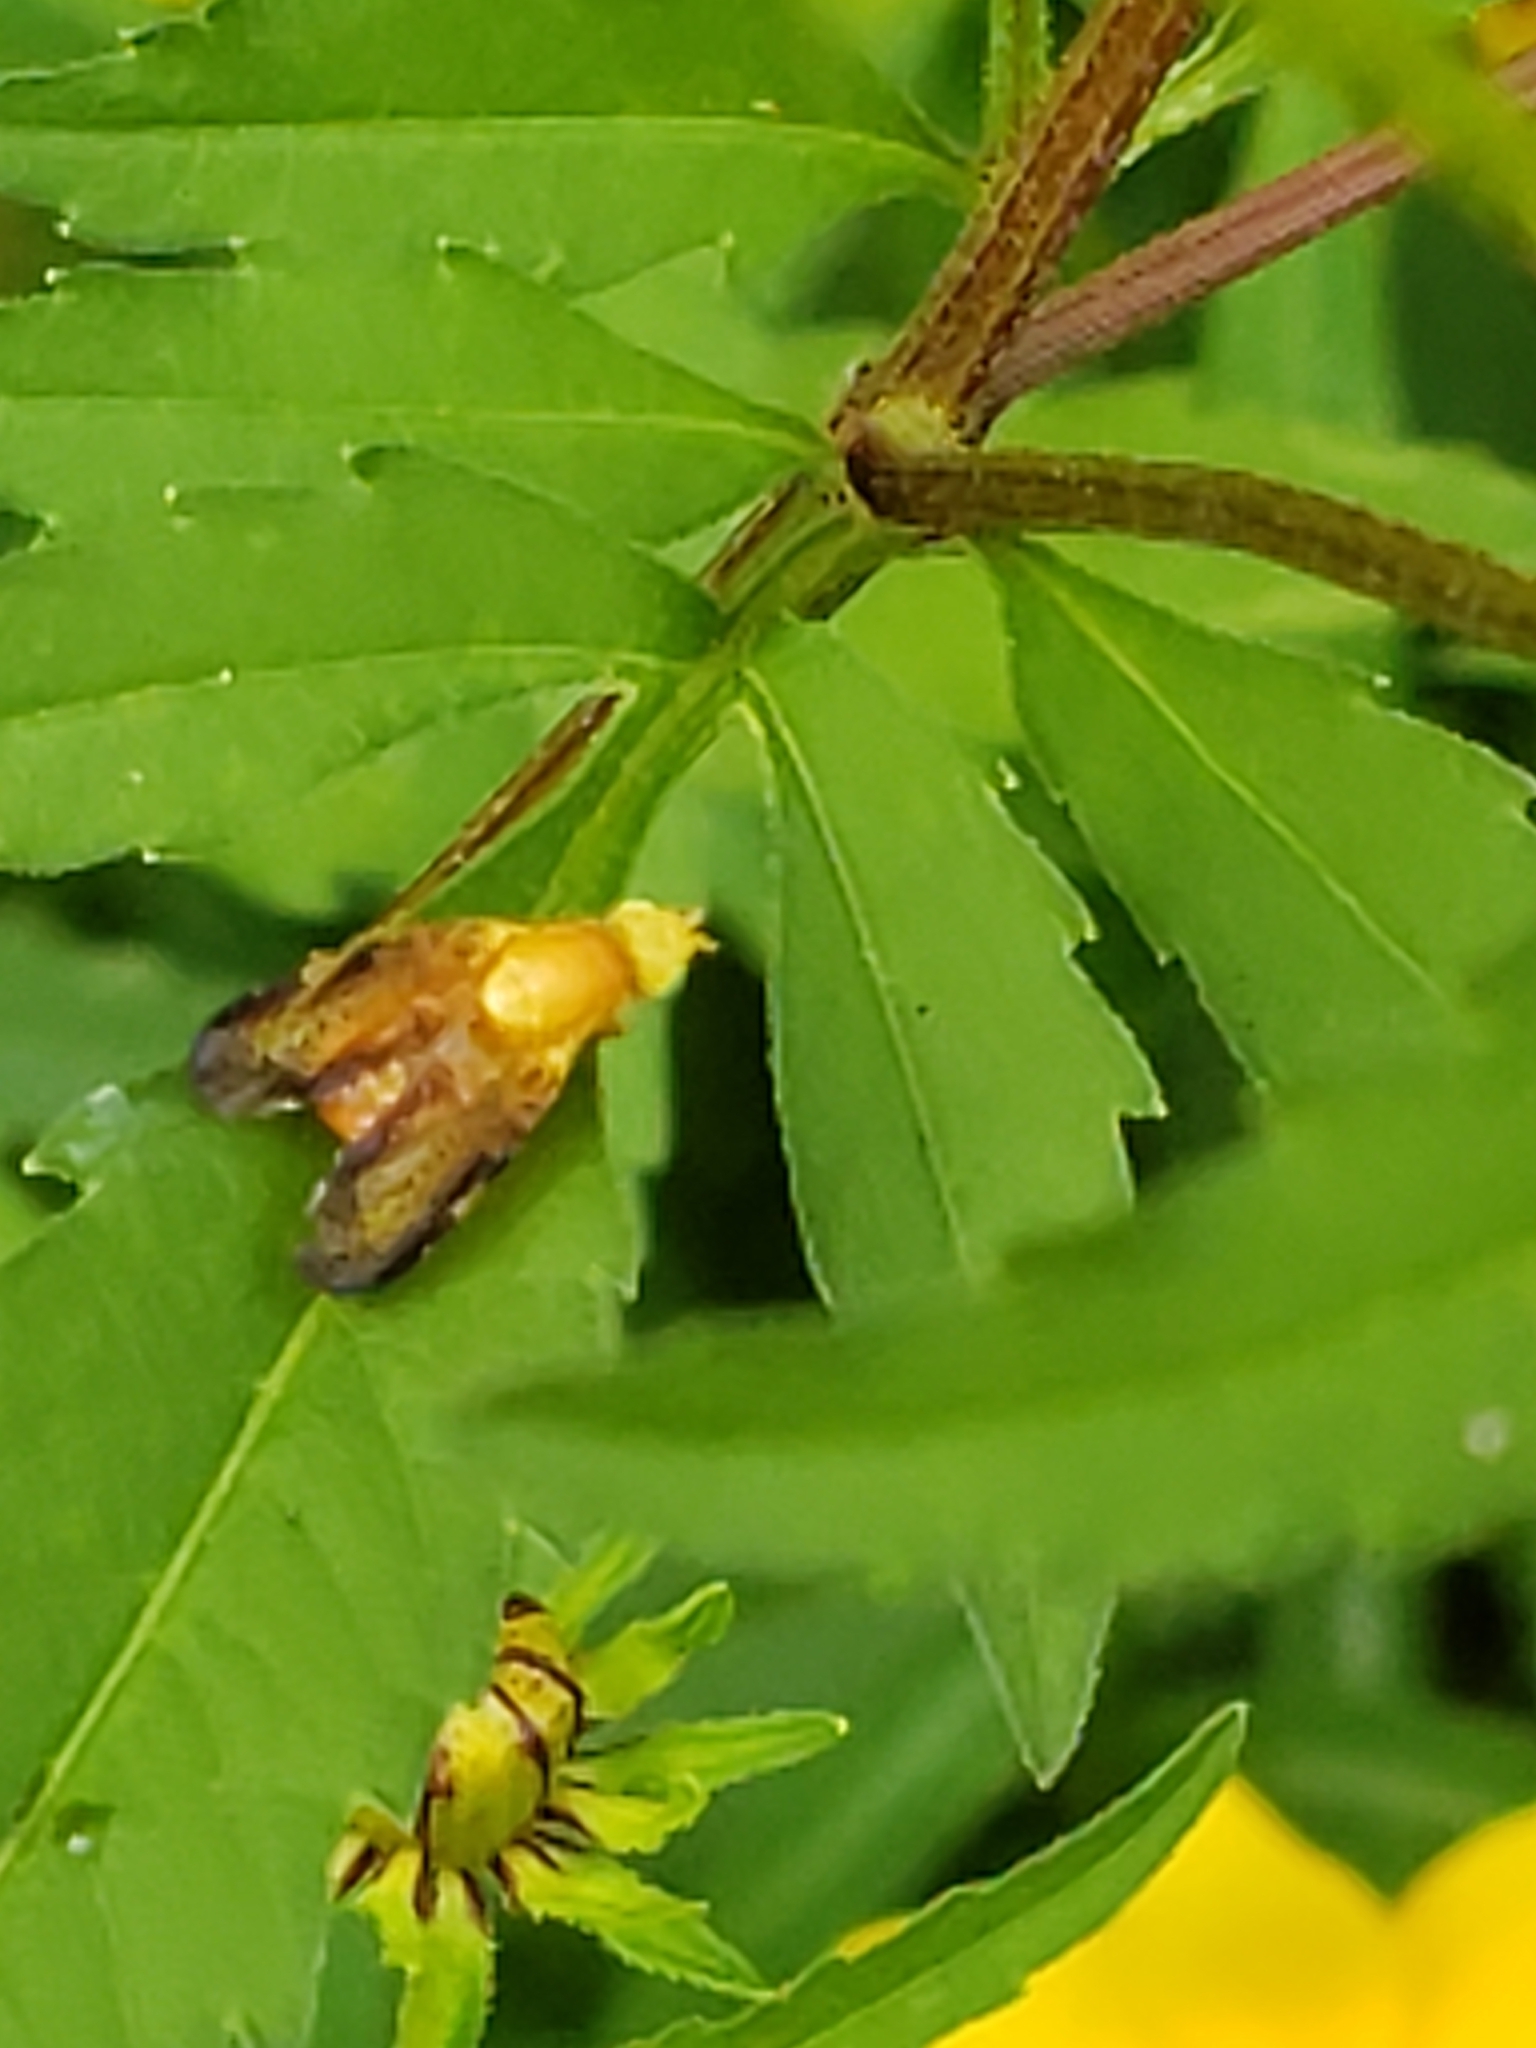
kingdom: Animalia
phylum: Arthropoda
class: Insecta
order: Diptera
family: Tephritidae
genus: Icterica
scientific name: Icterica seriata
